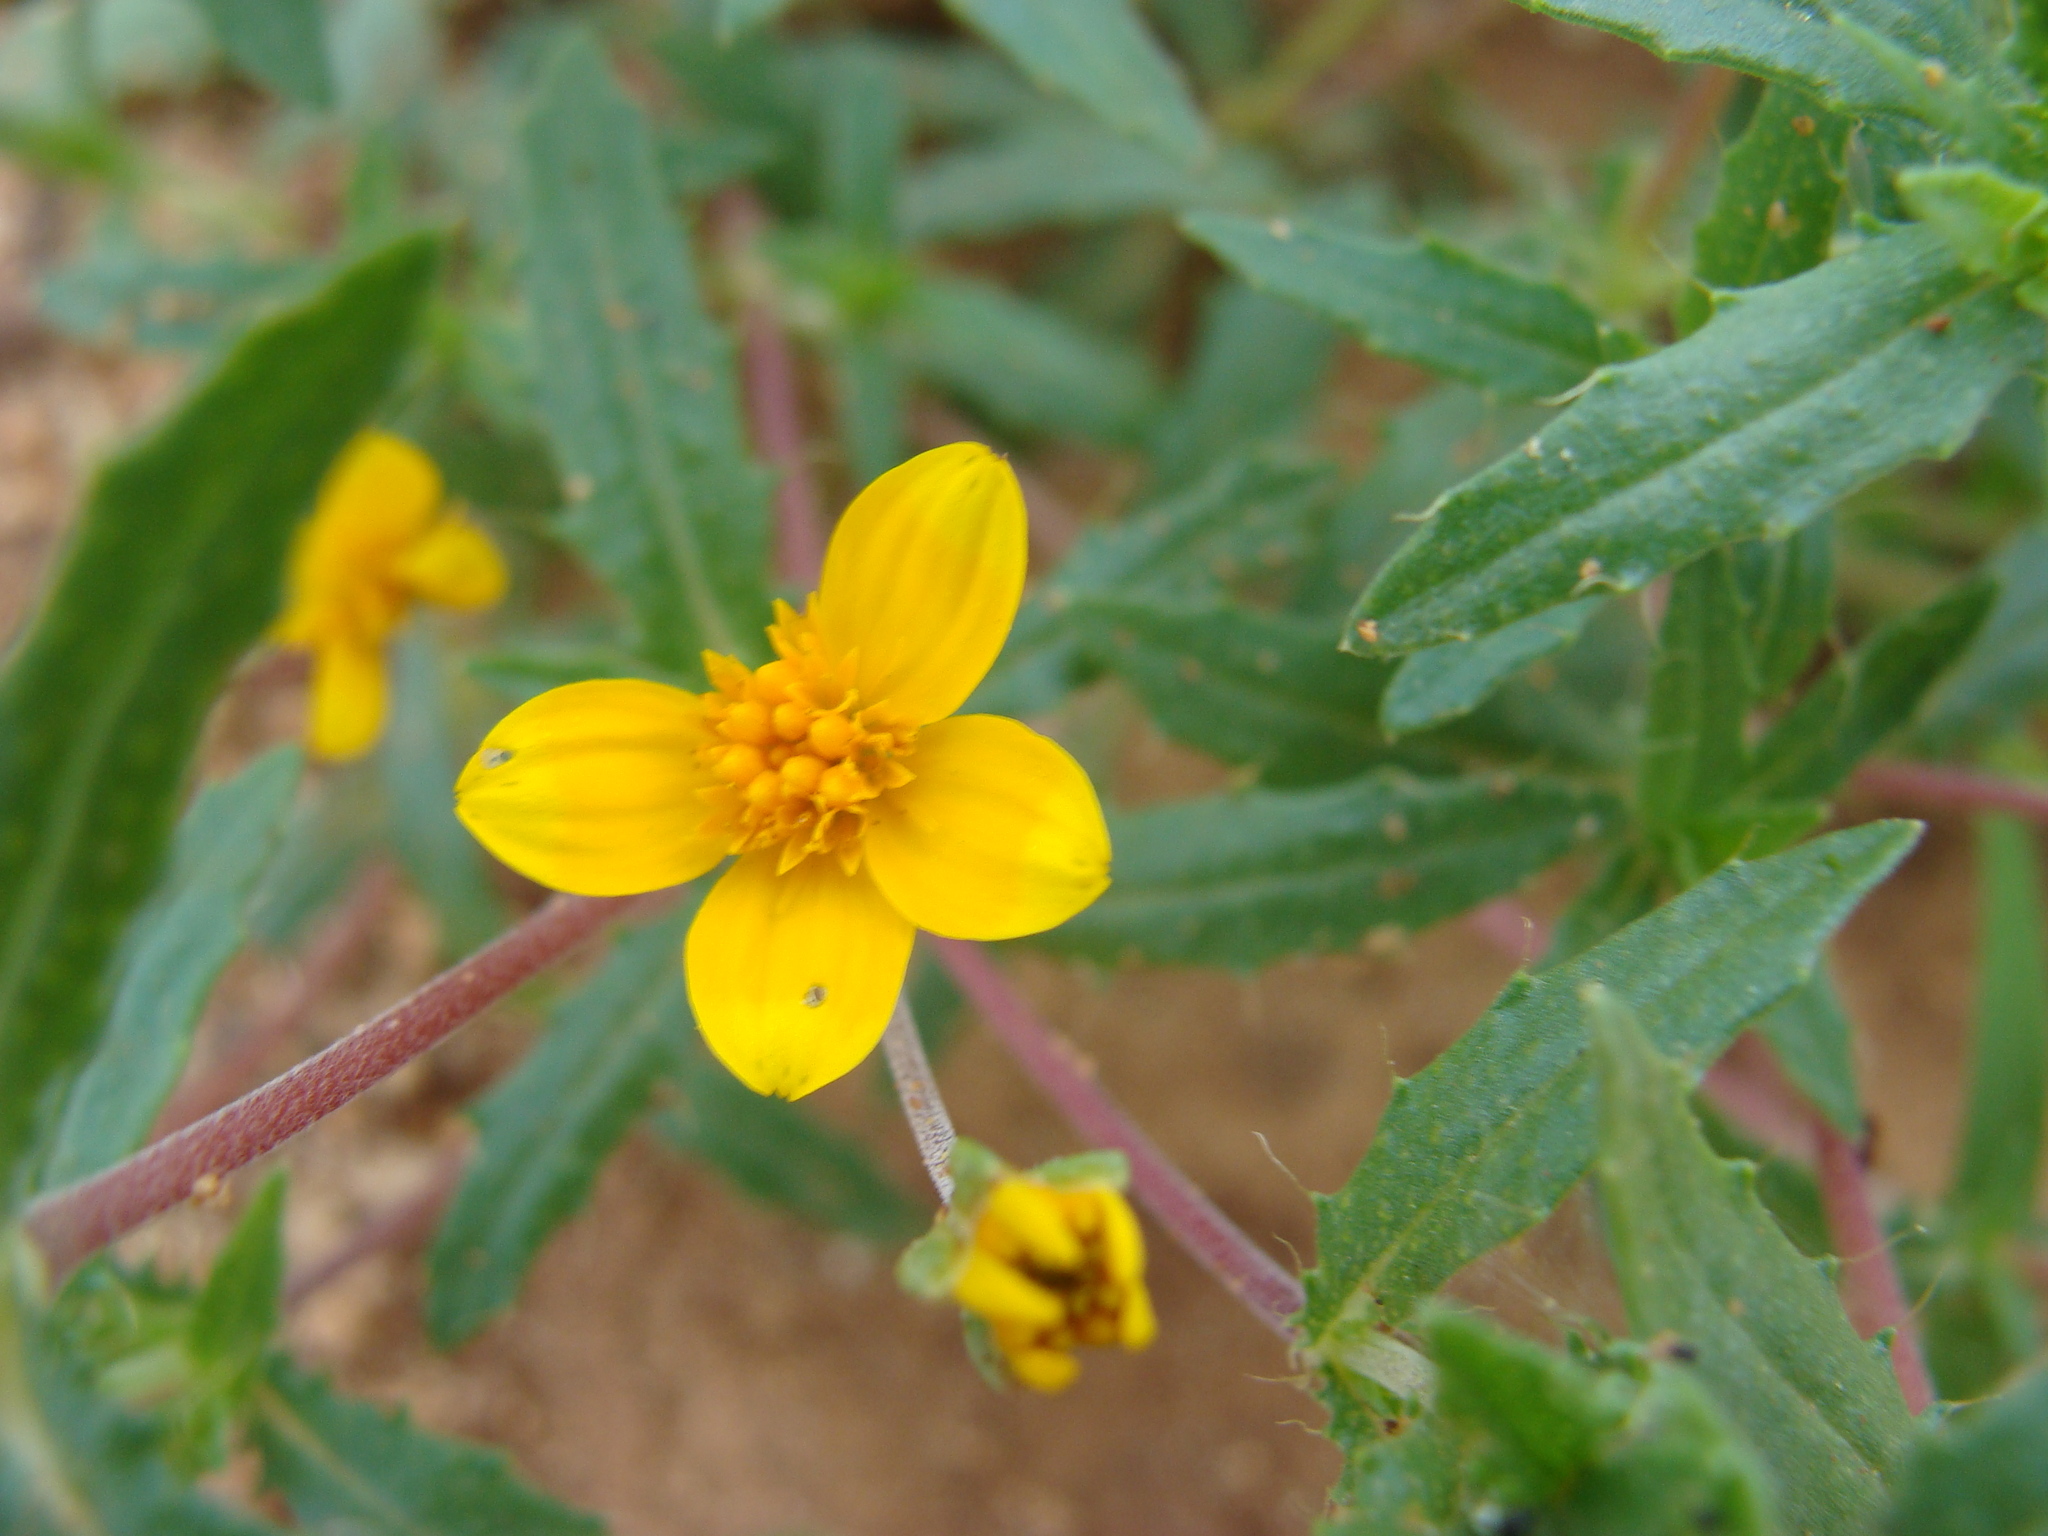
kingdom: Plantae
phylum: Tracheophyta
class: Magnoliopsida
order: Asterales
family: Asteraceae
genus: Pectis
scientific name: Pectis multiseta
